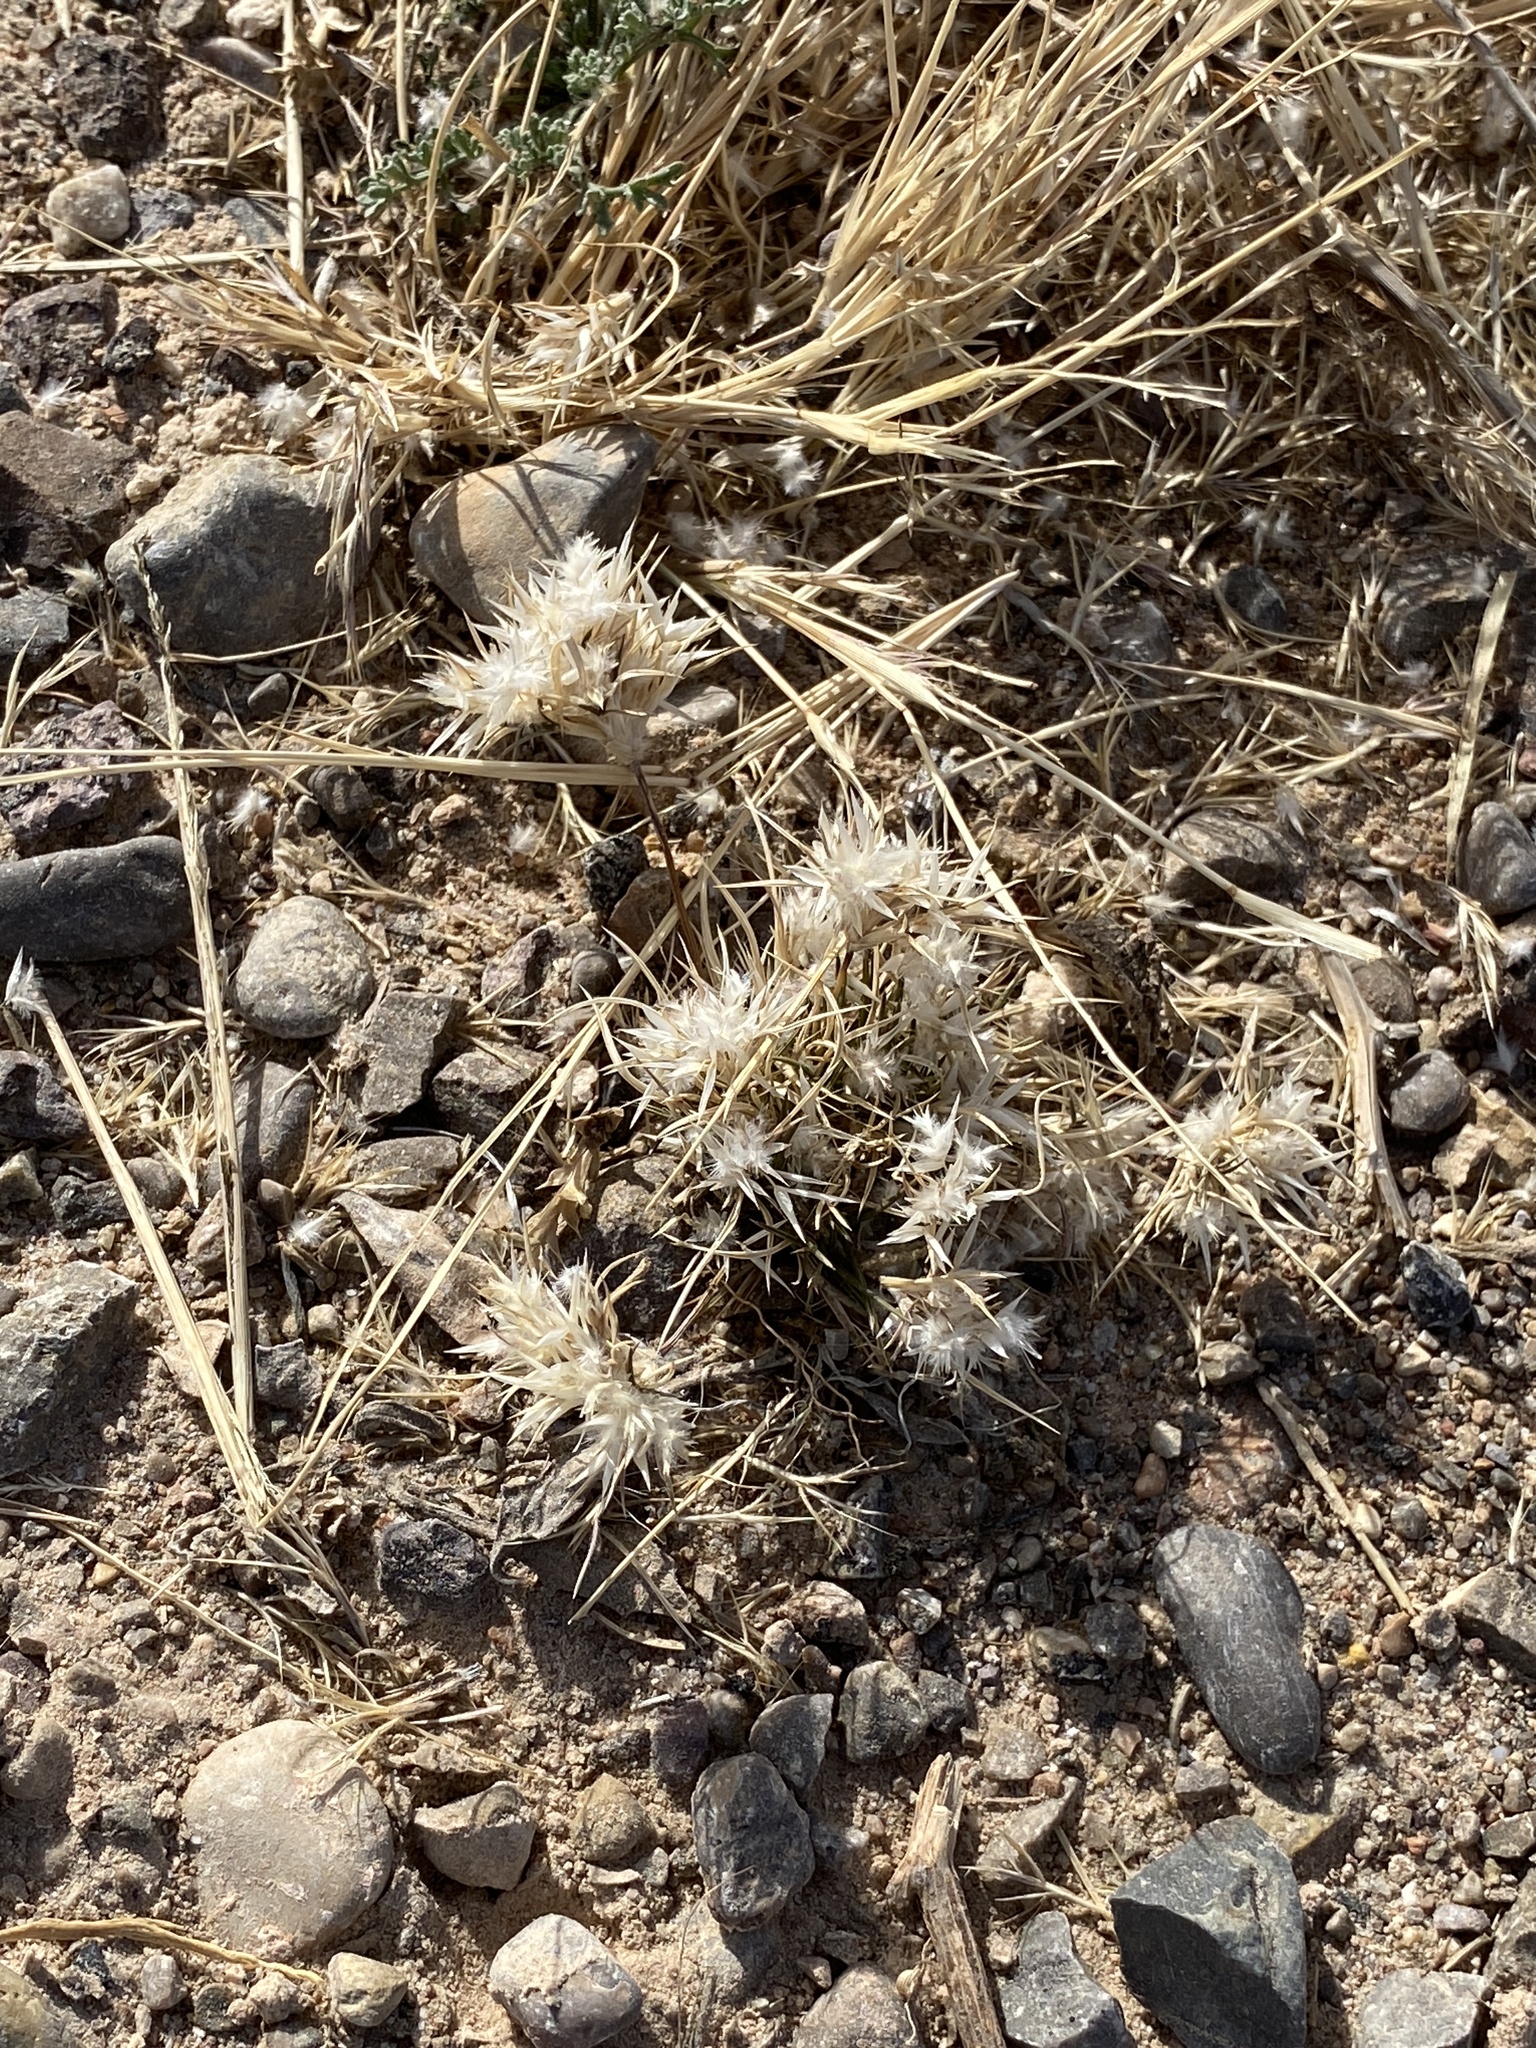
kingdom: Plantae
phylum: Tracheophyta
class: Liliopsida
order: Poales
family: Poaceae
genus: Dasyochloa
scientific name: Dasyochloa pulchella
